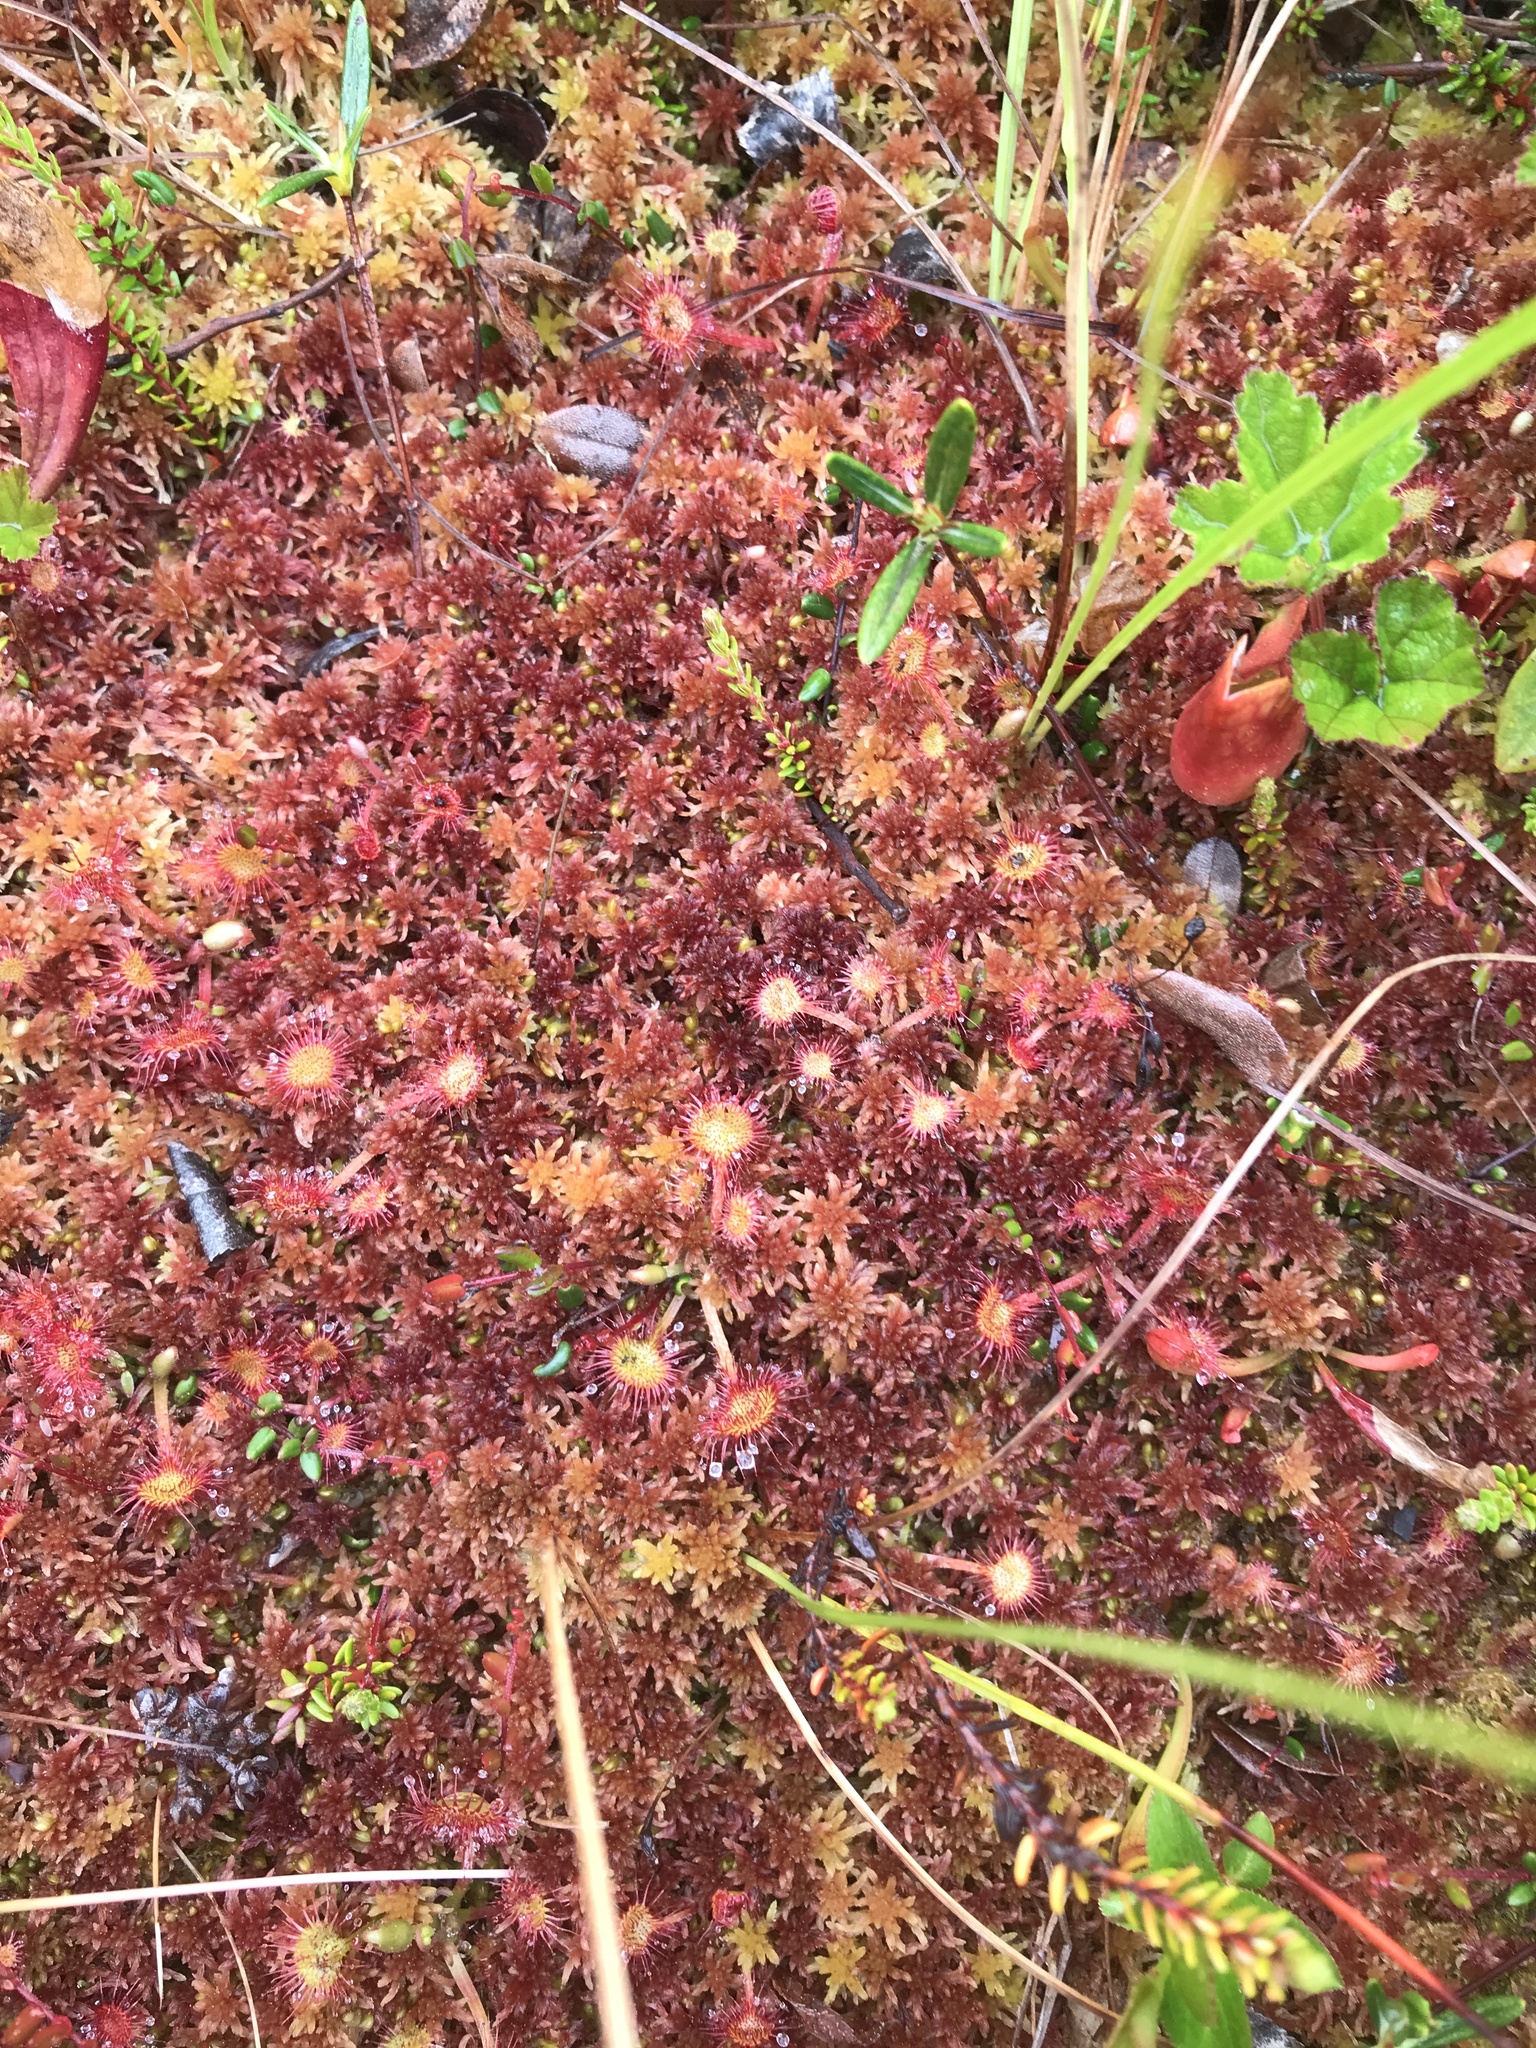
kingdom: Plantae
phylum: Tracheophyta
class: Magnoliopsida
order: Caryophyllales
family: Droseraceae
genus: Drosera
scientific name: Drosera rotundifolia
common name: Round-leaved sundew
